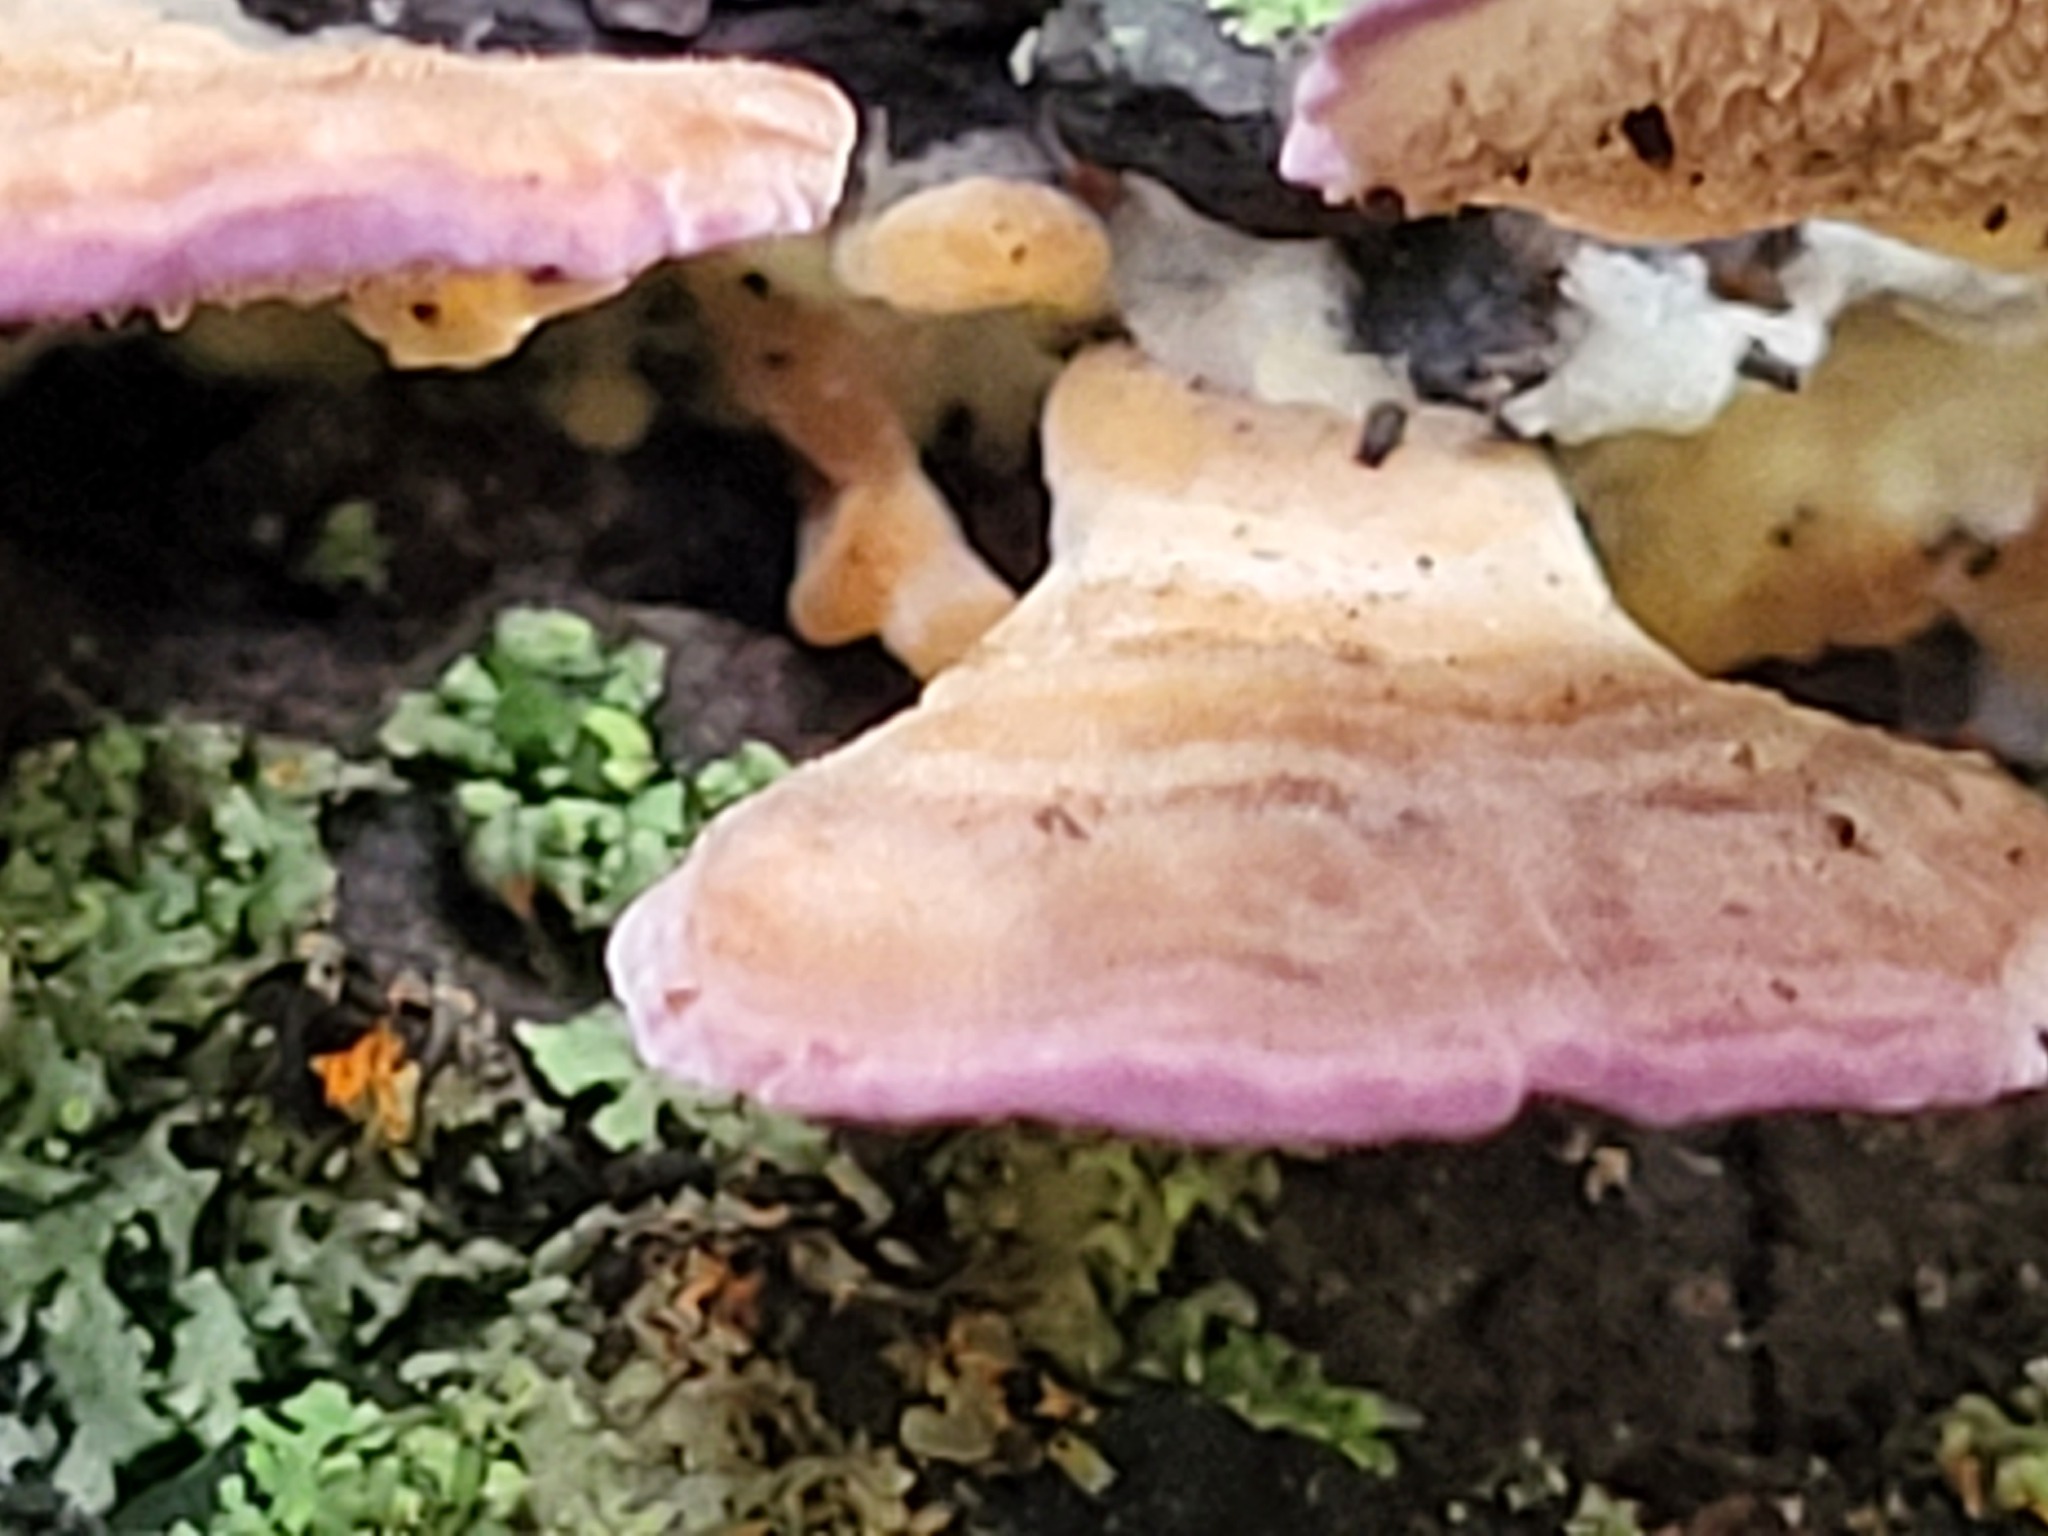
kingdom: Fungi
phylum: Basidiomycota
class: Agaricomycetes
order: Hymenochaetales
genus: Trichaptum
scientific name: Trichaptum biforme
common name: Violet-toothed polypore
